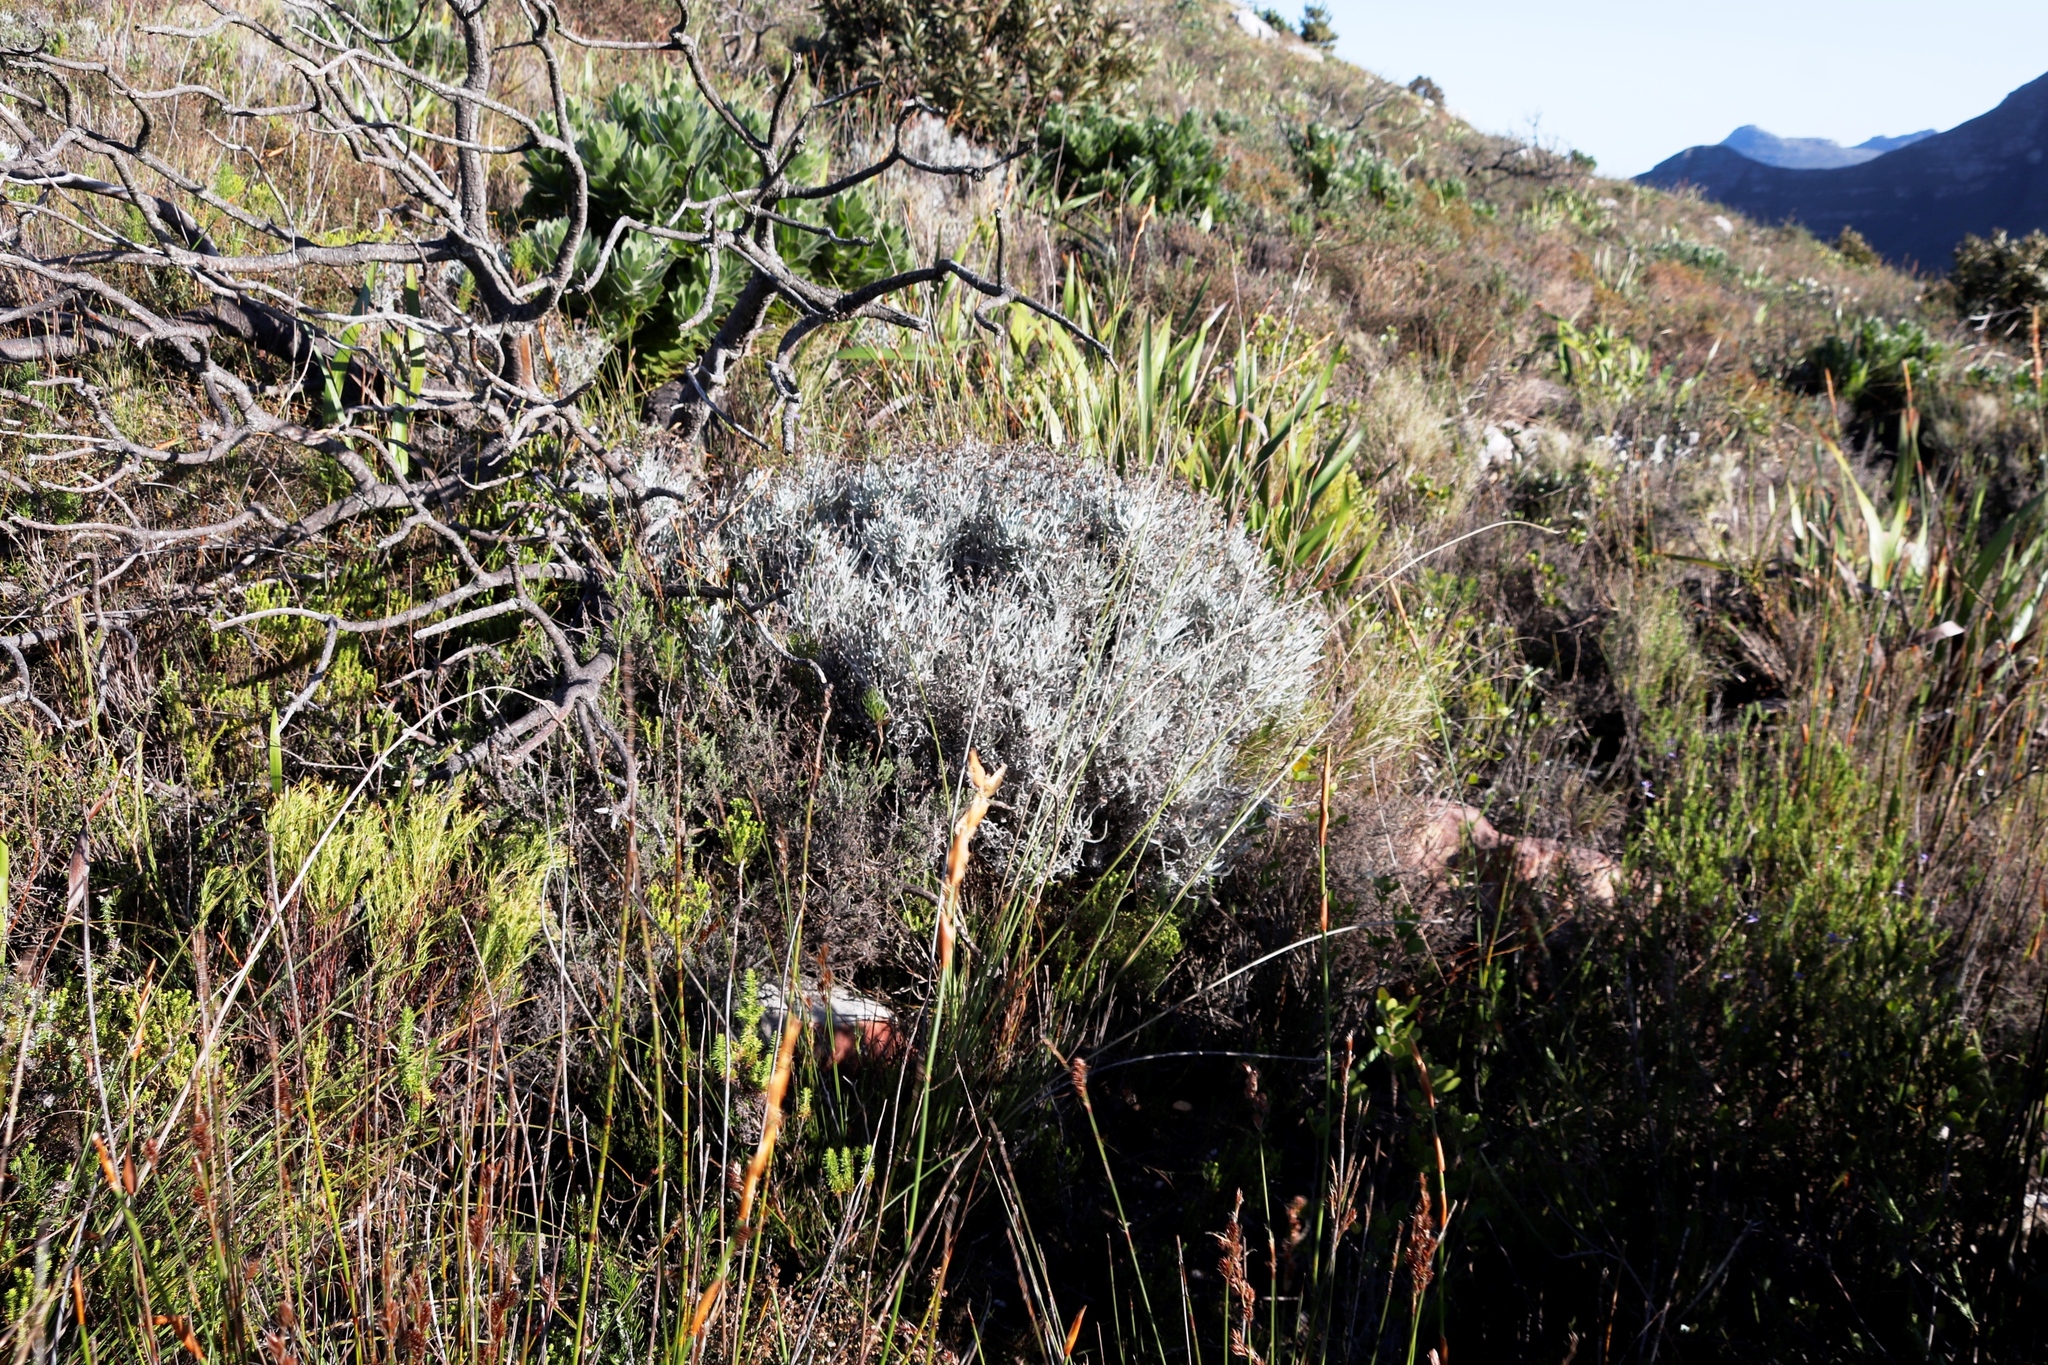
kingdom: Plantae
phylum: Tracheophyta
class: Magnoliopsida
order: Asterales
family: Asteraceae
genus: Syncarpha
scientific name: Syncarpha gnaphaloides
